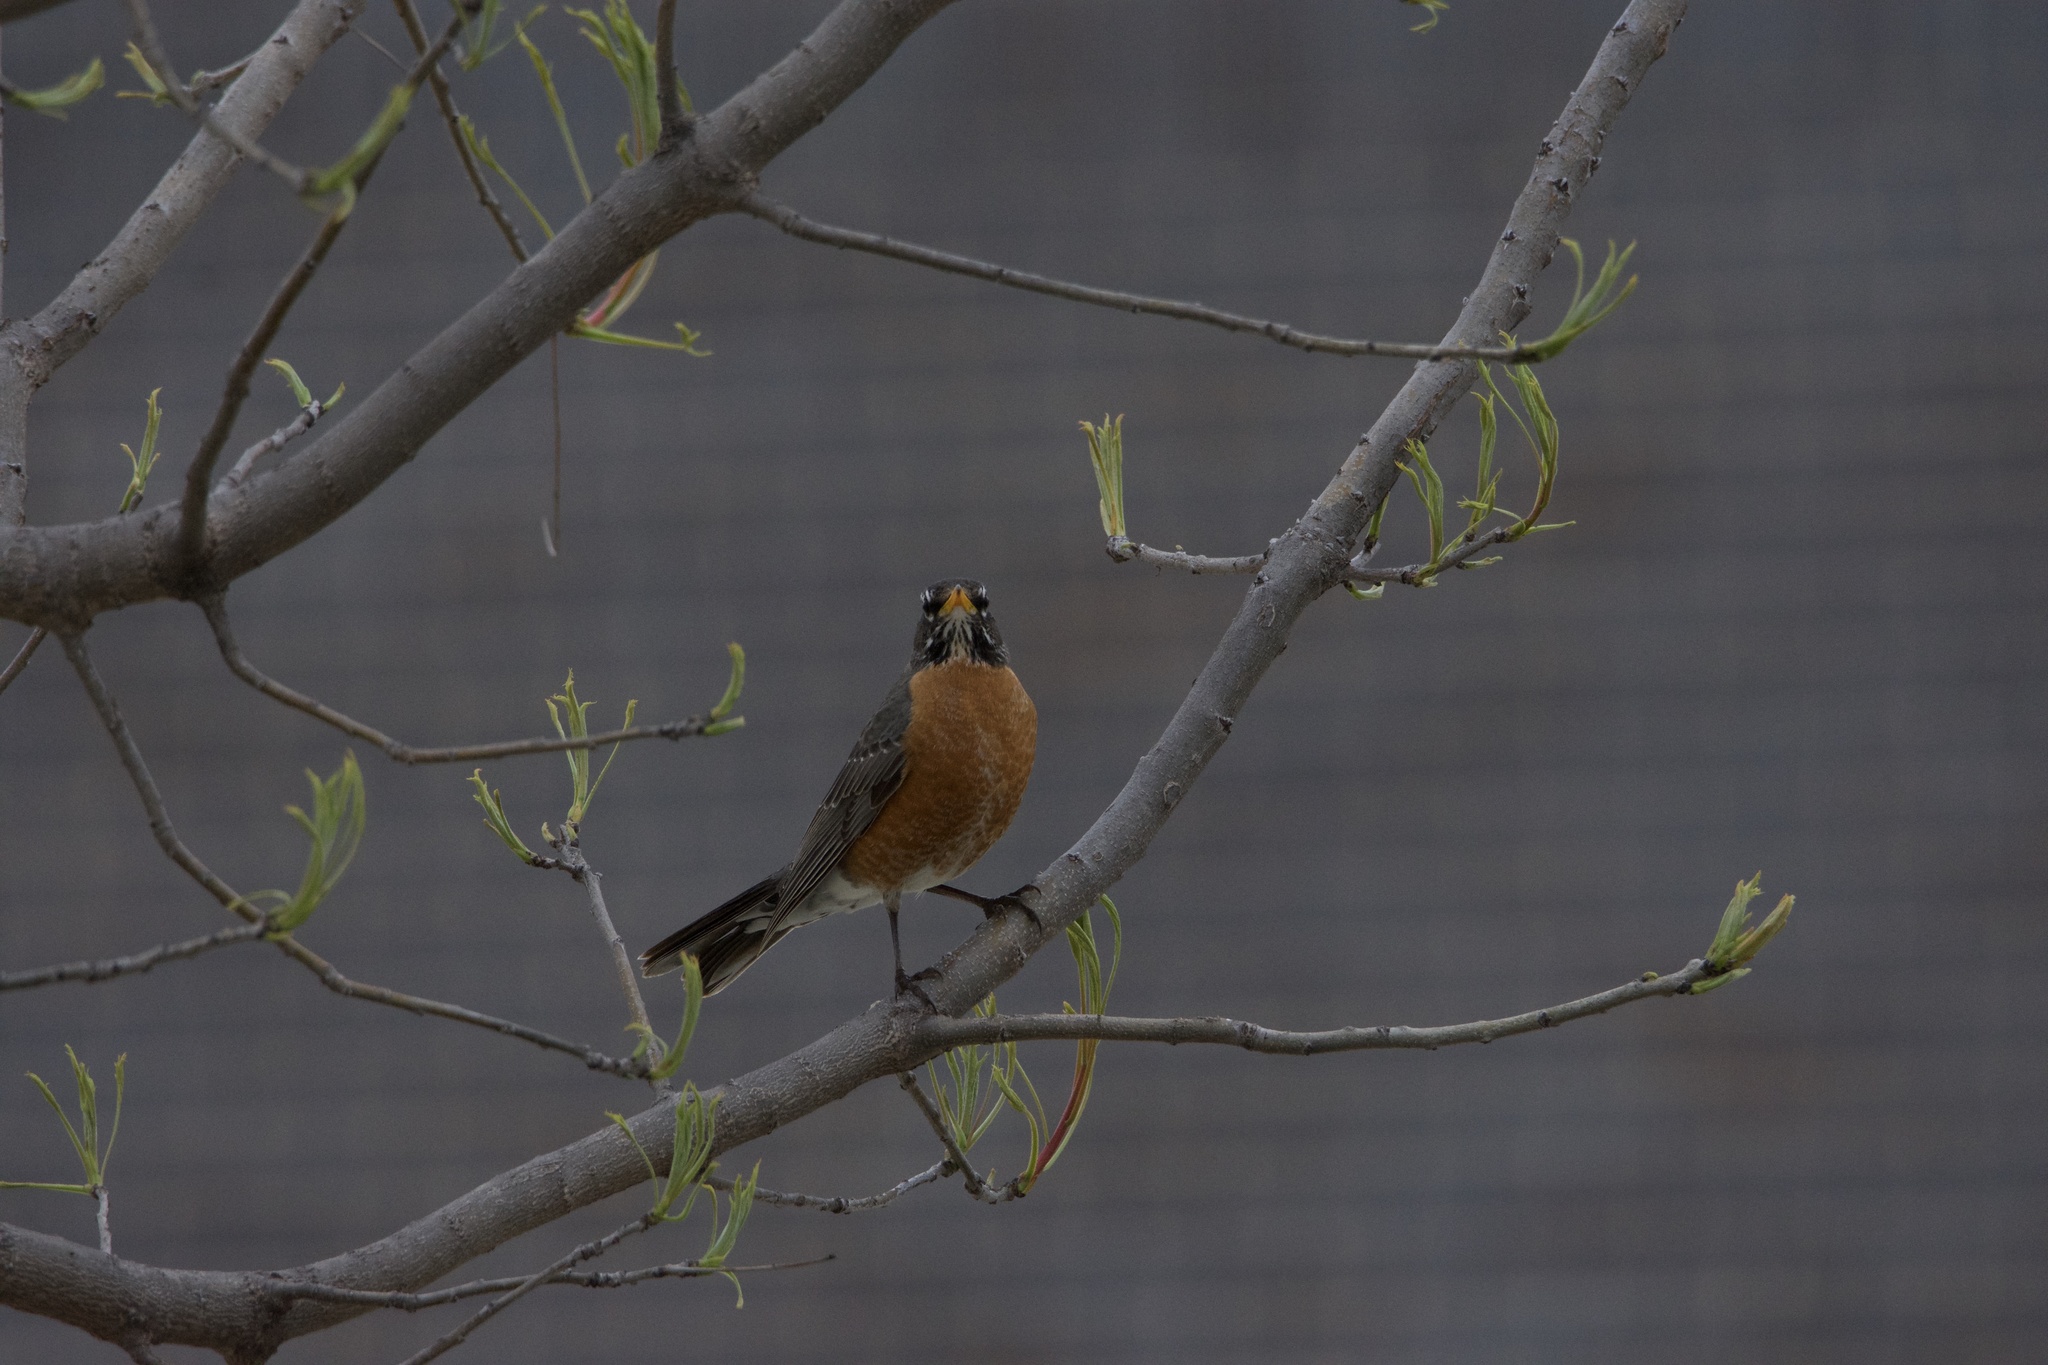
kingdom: Animalia
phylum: Chordata
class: Aves
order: Passeriformes
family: Turdidae
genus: Turdus
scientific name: Turdus migratorius
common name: American robin
